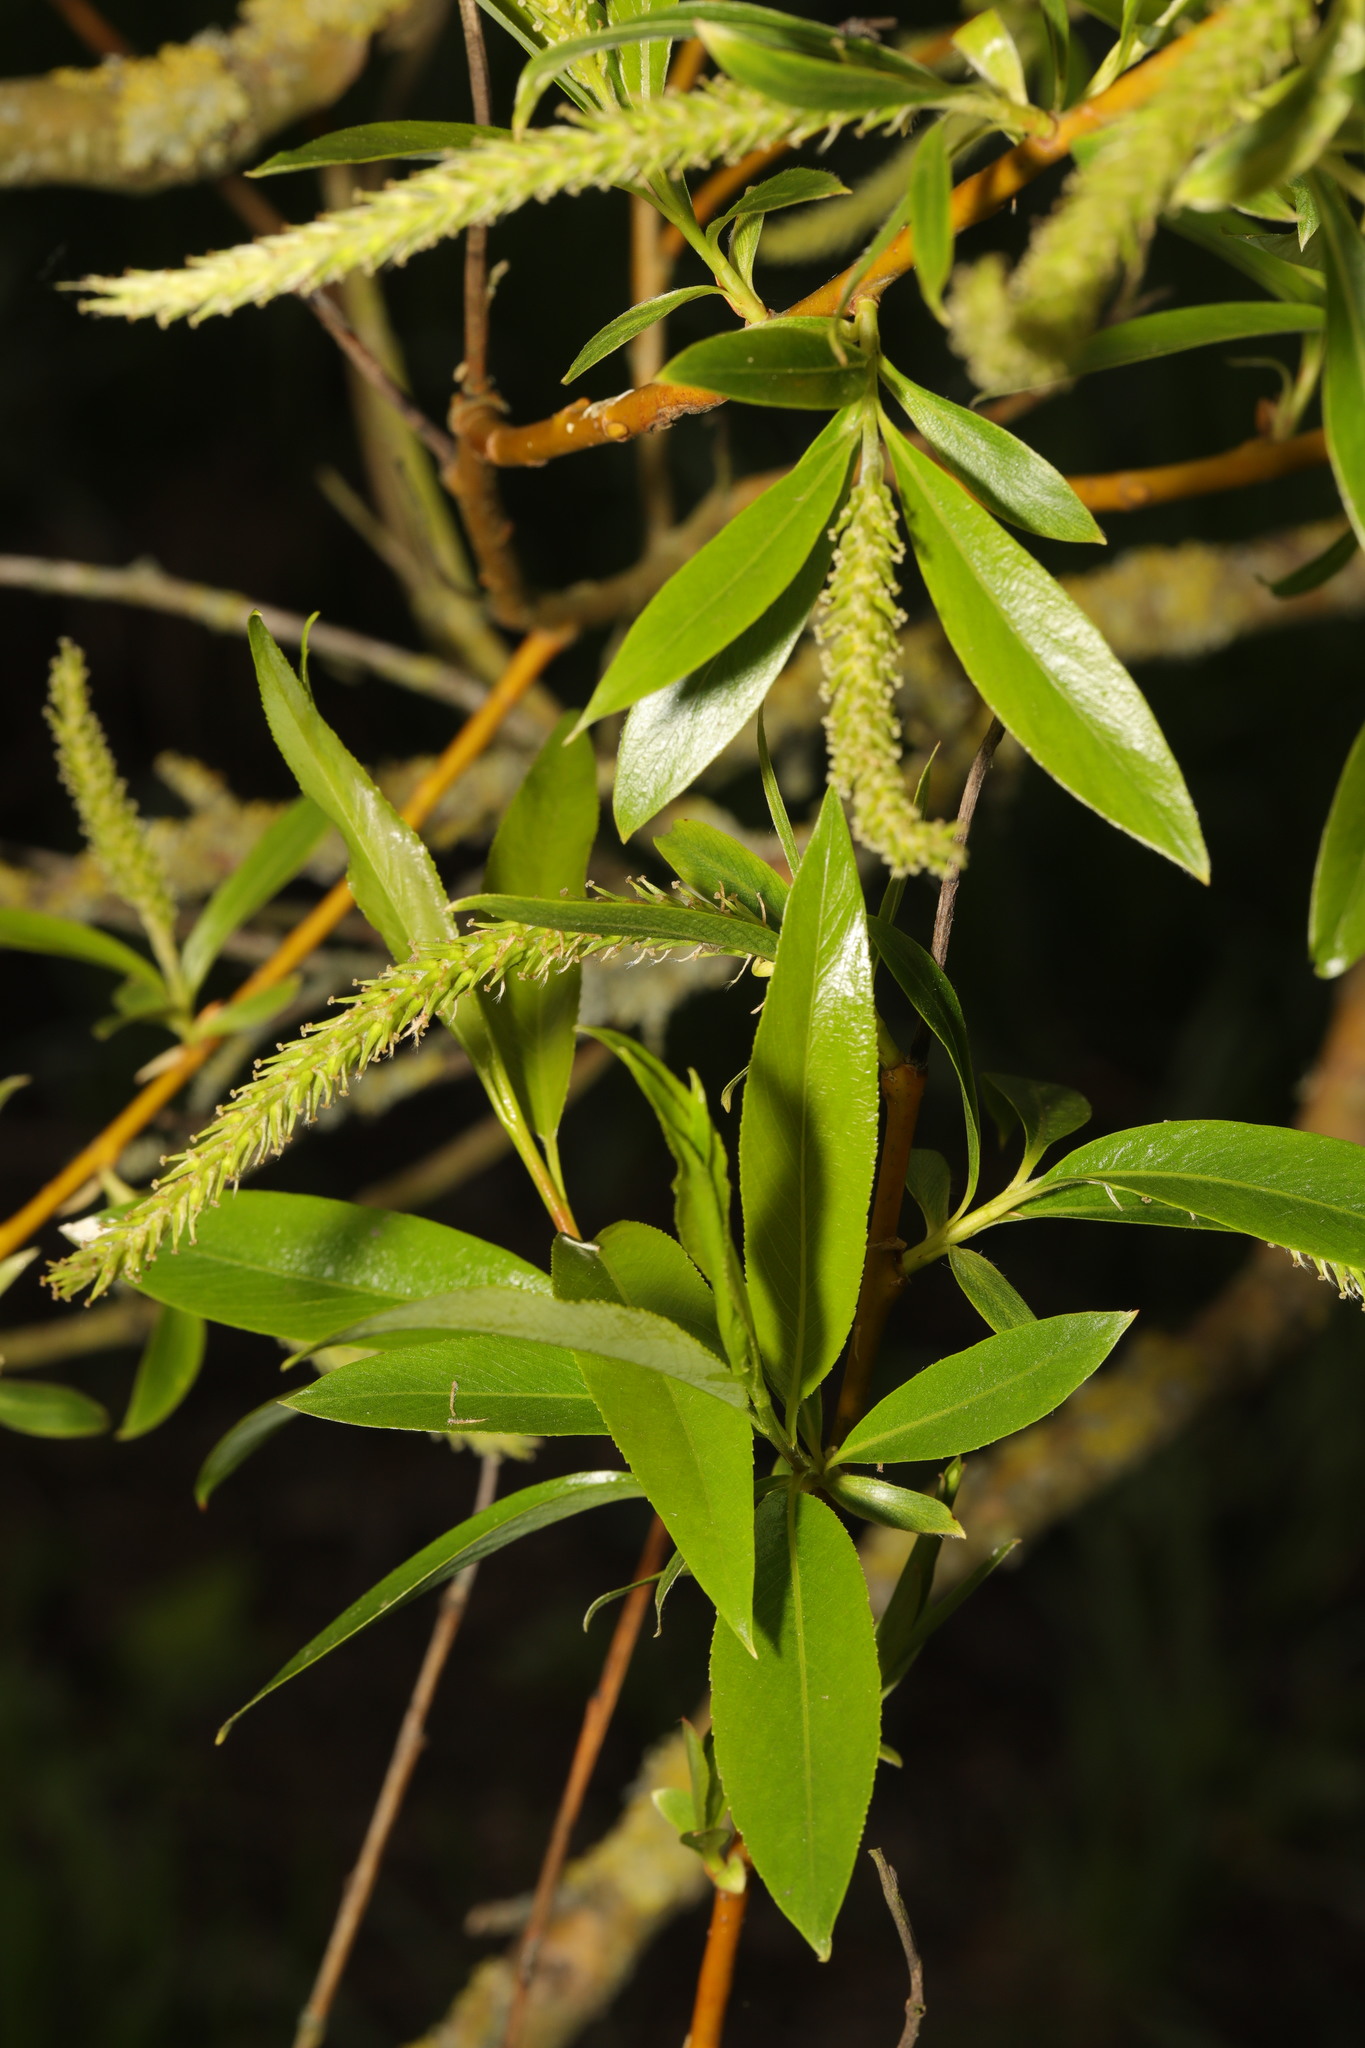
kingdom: Plantae
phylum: Tracheophyta
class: Magnoliopsida
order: Malpighiales
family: Salicaceae
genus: Salix
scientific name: Salix fragilis
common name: Crack willow
